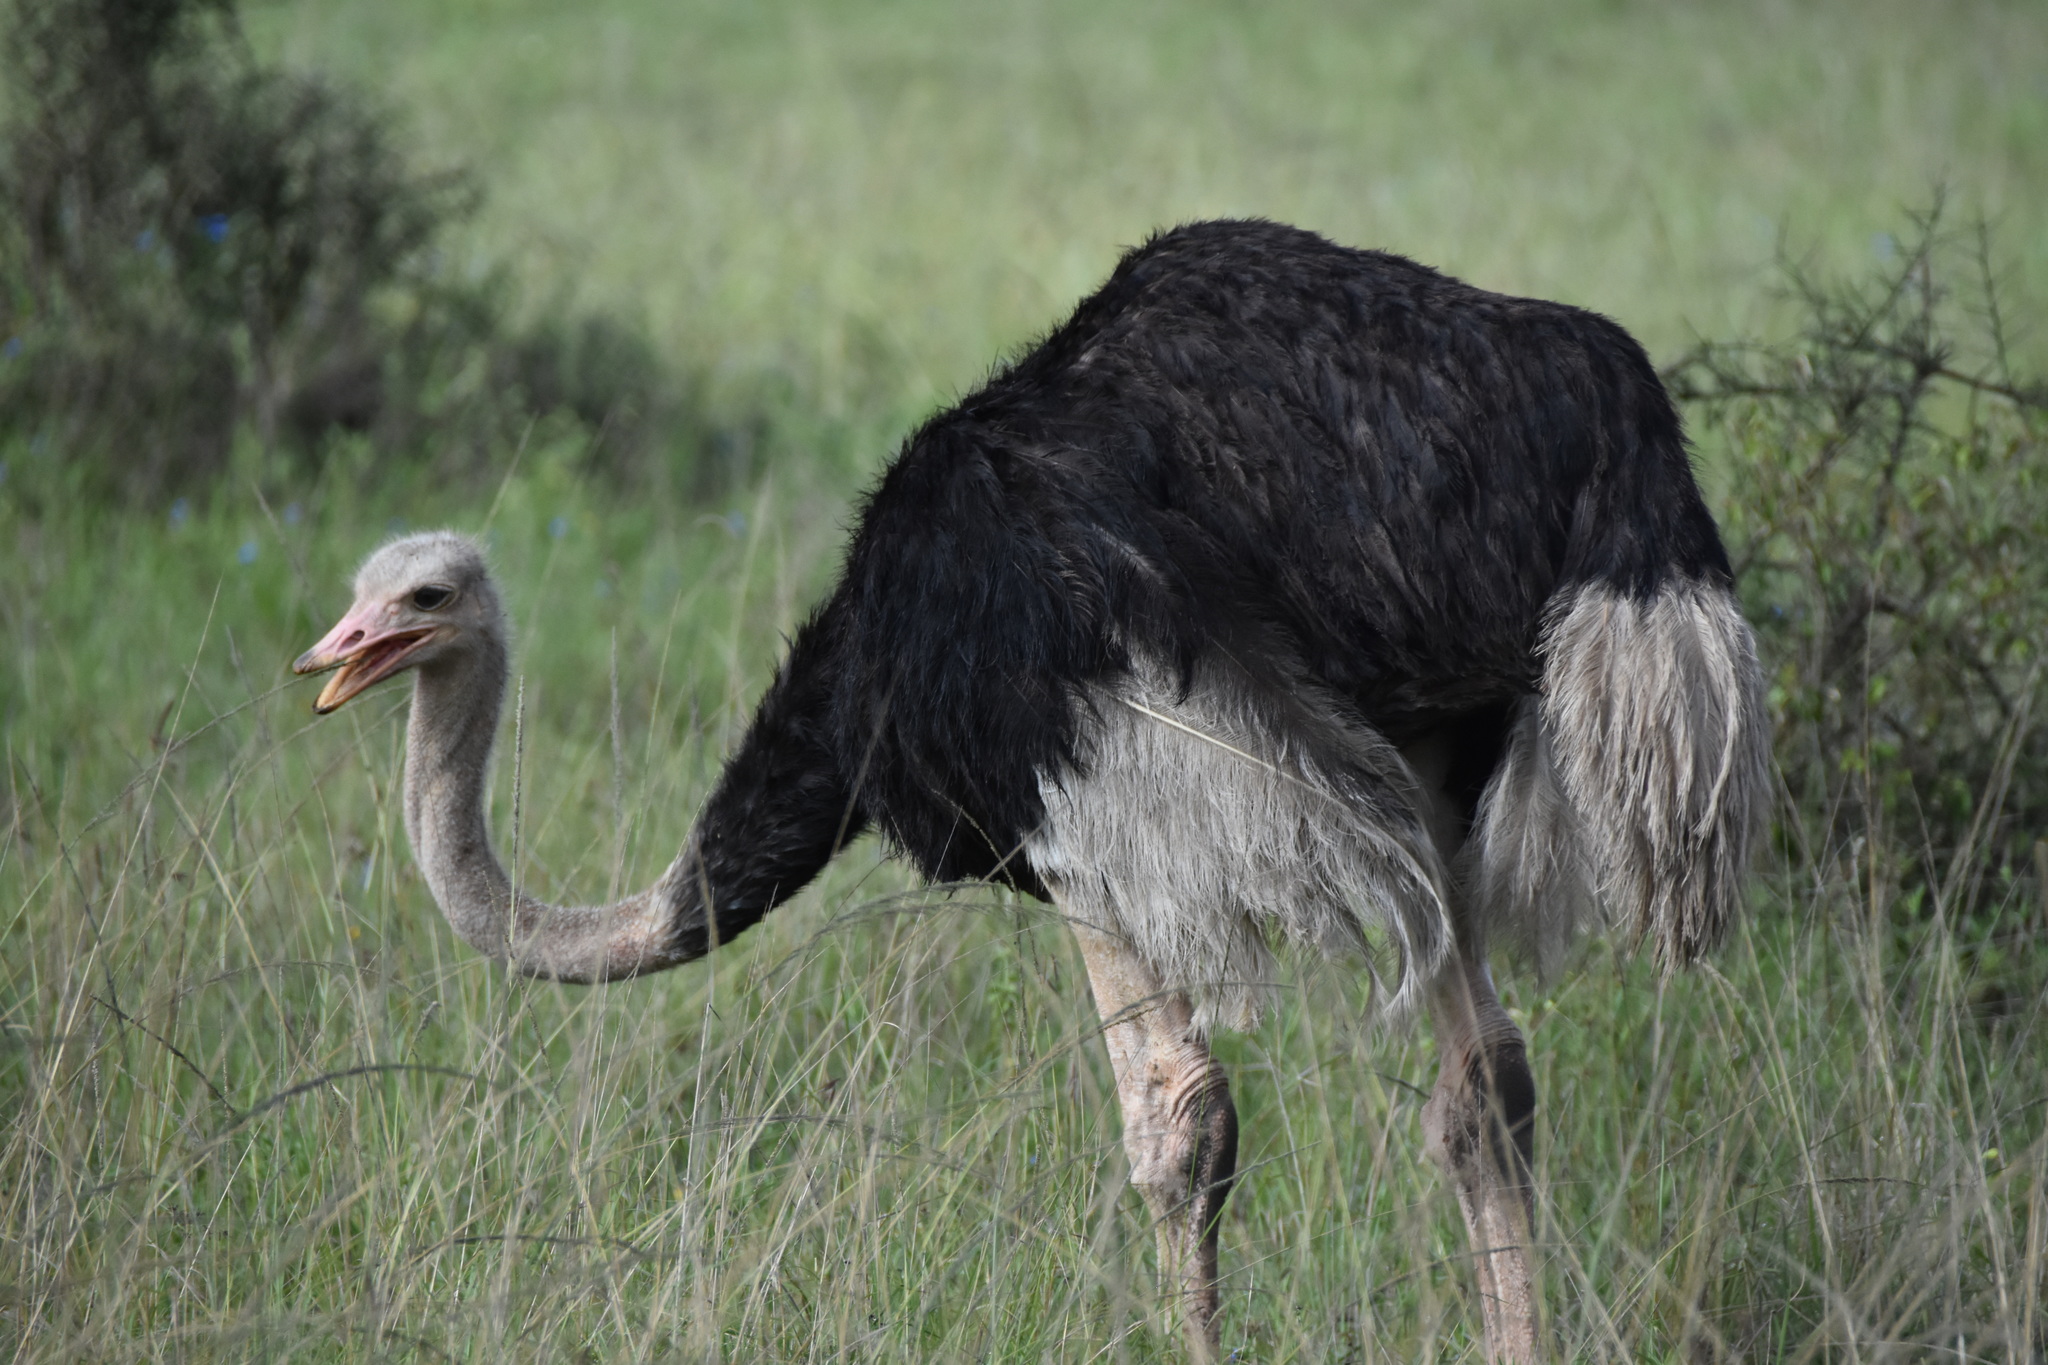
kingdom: Animalia
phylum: Chordata
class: Aves
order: Struthioniformes
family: Struthionidae
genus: Struthio
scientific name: Struthio camelus
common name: Common ostrich
